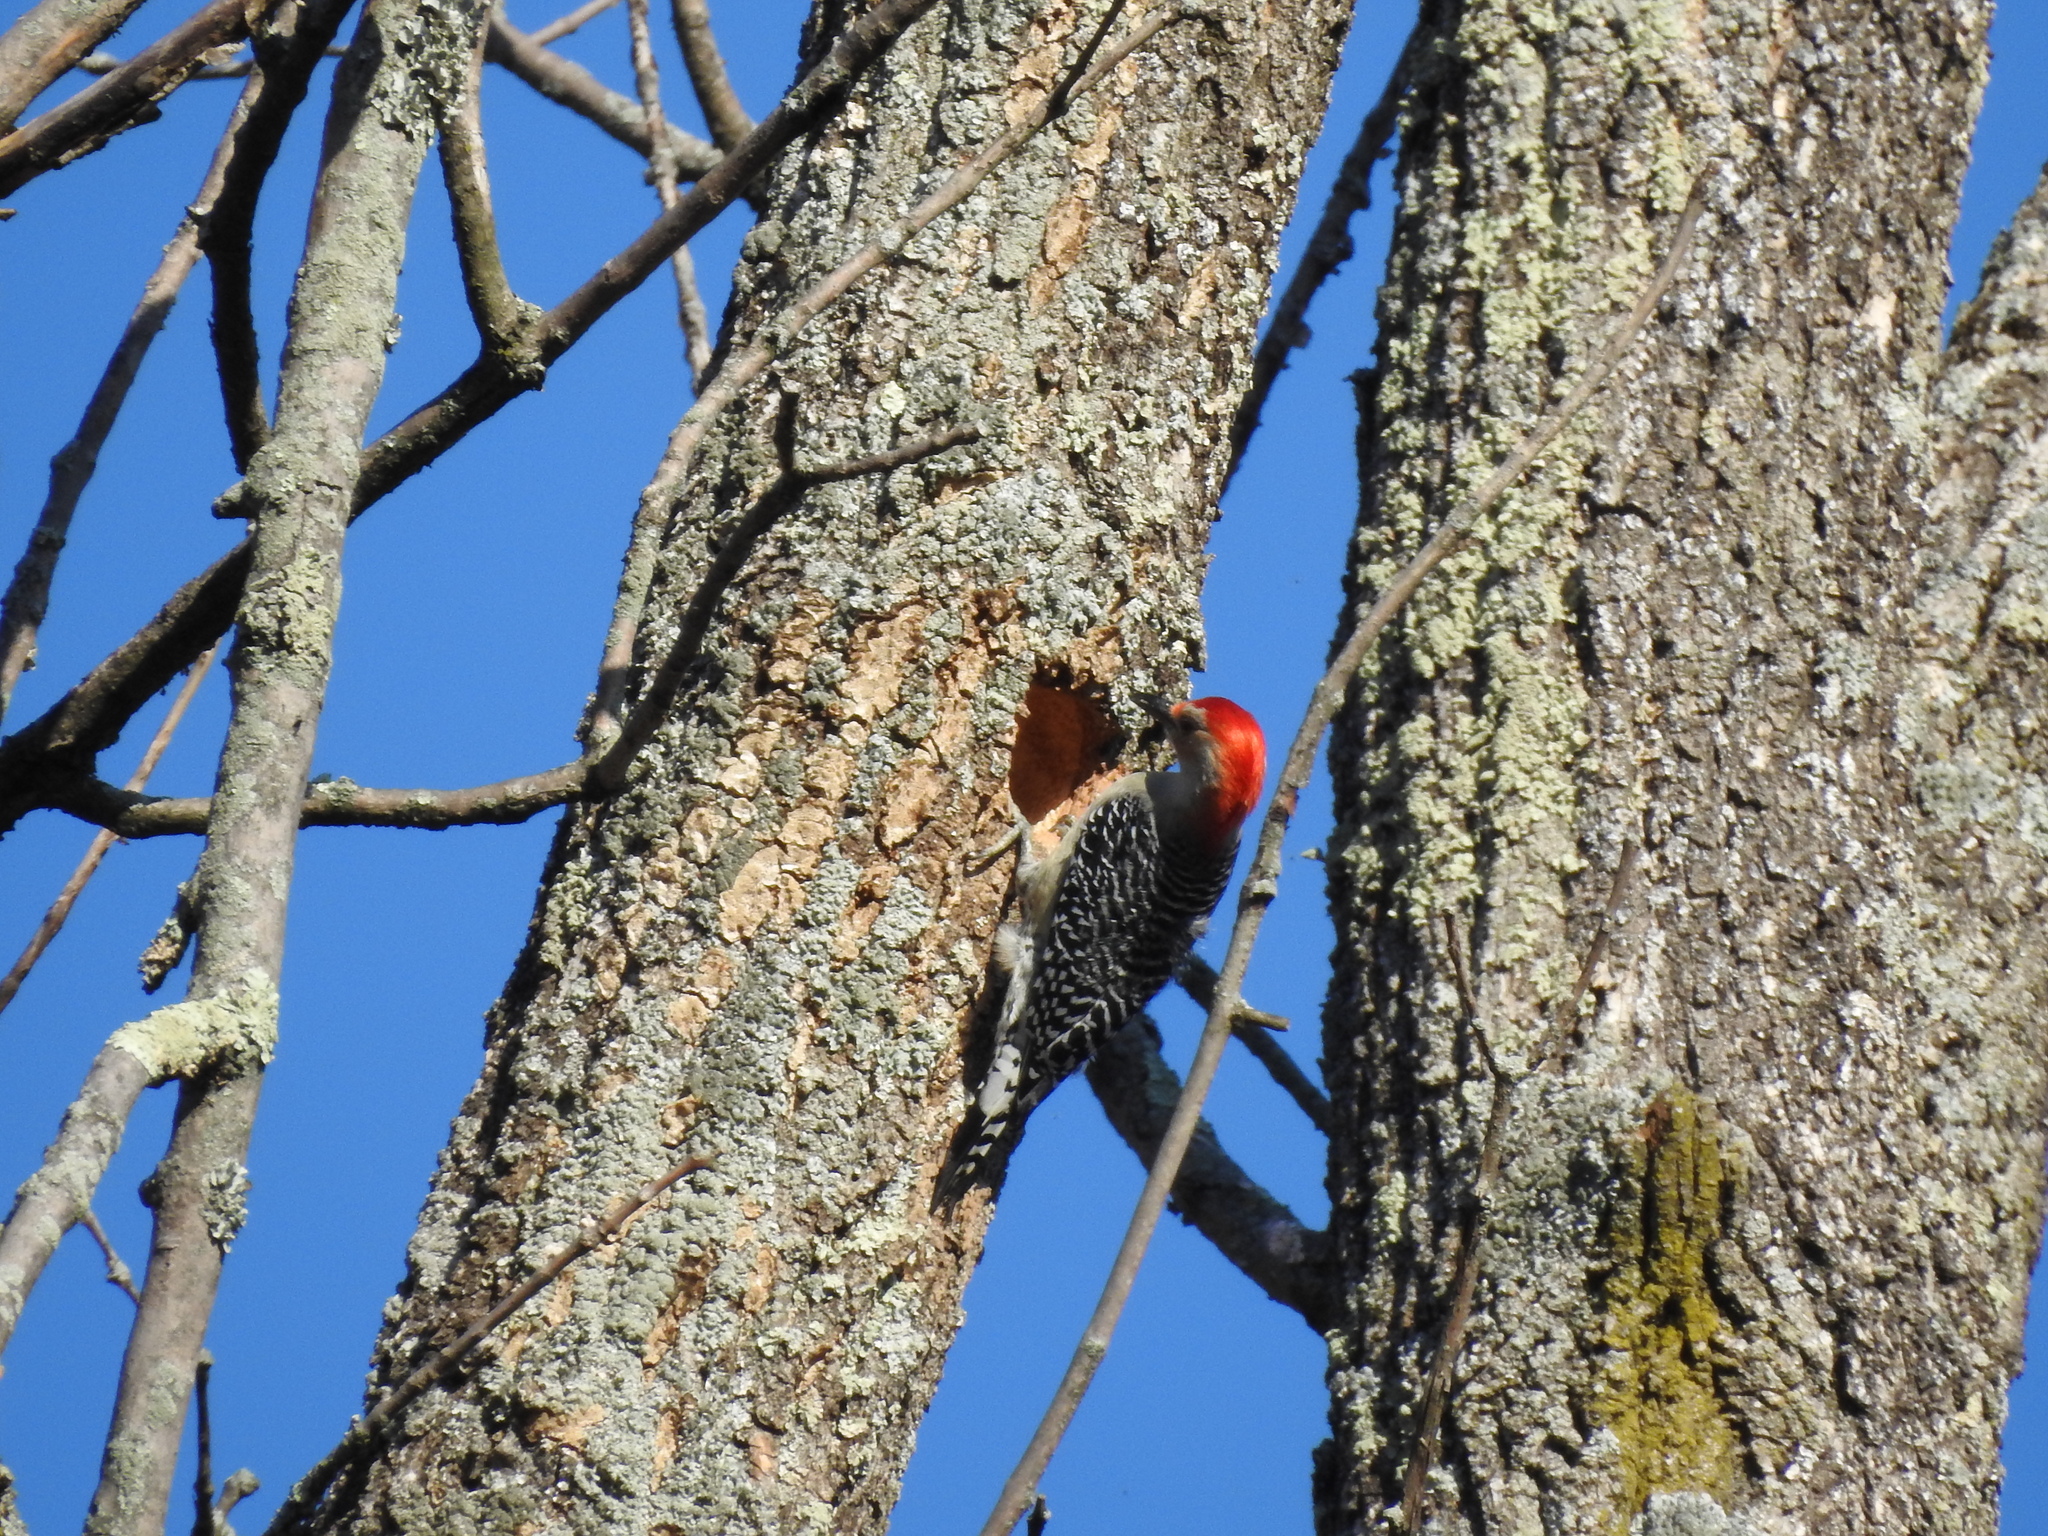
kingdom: Animalia
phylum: Chordata
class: Aves
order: Piciformes
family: Picidae
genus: Melanerpes
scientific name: Melanerpes carolinus
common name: Red-bellied woodpecker
